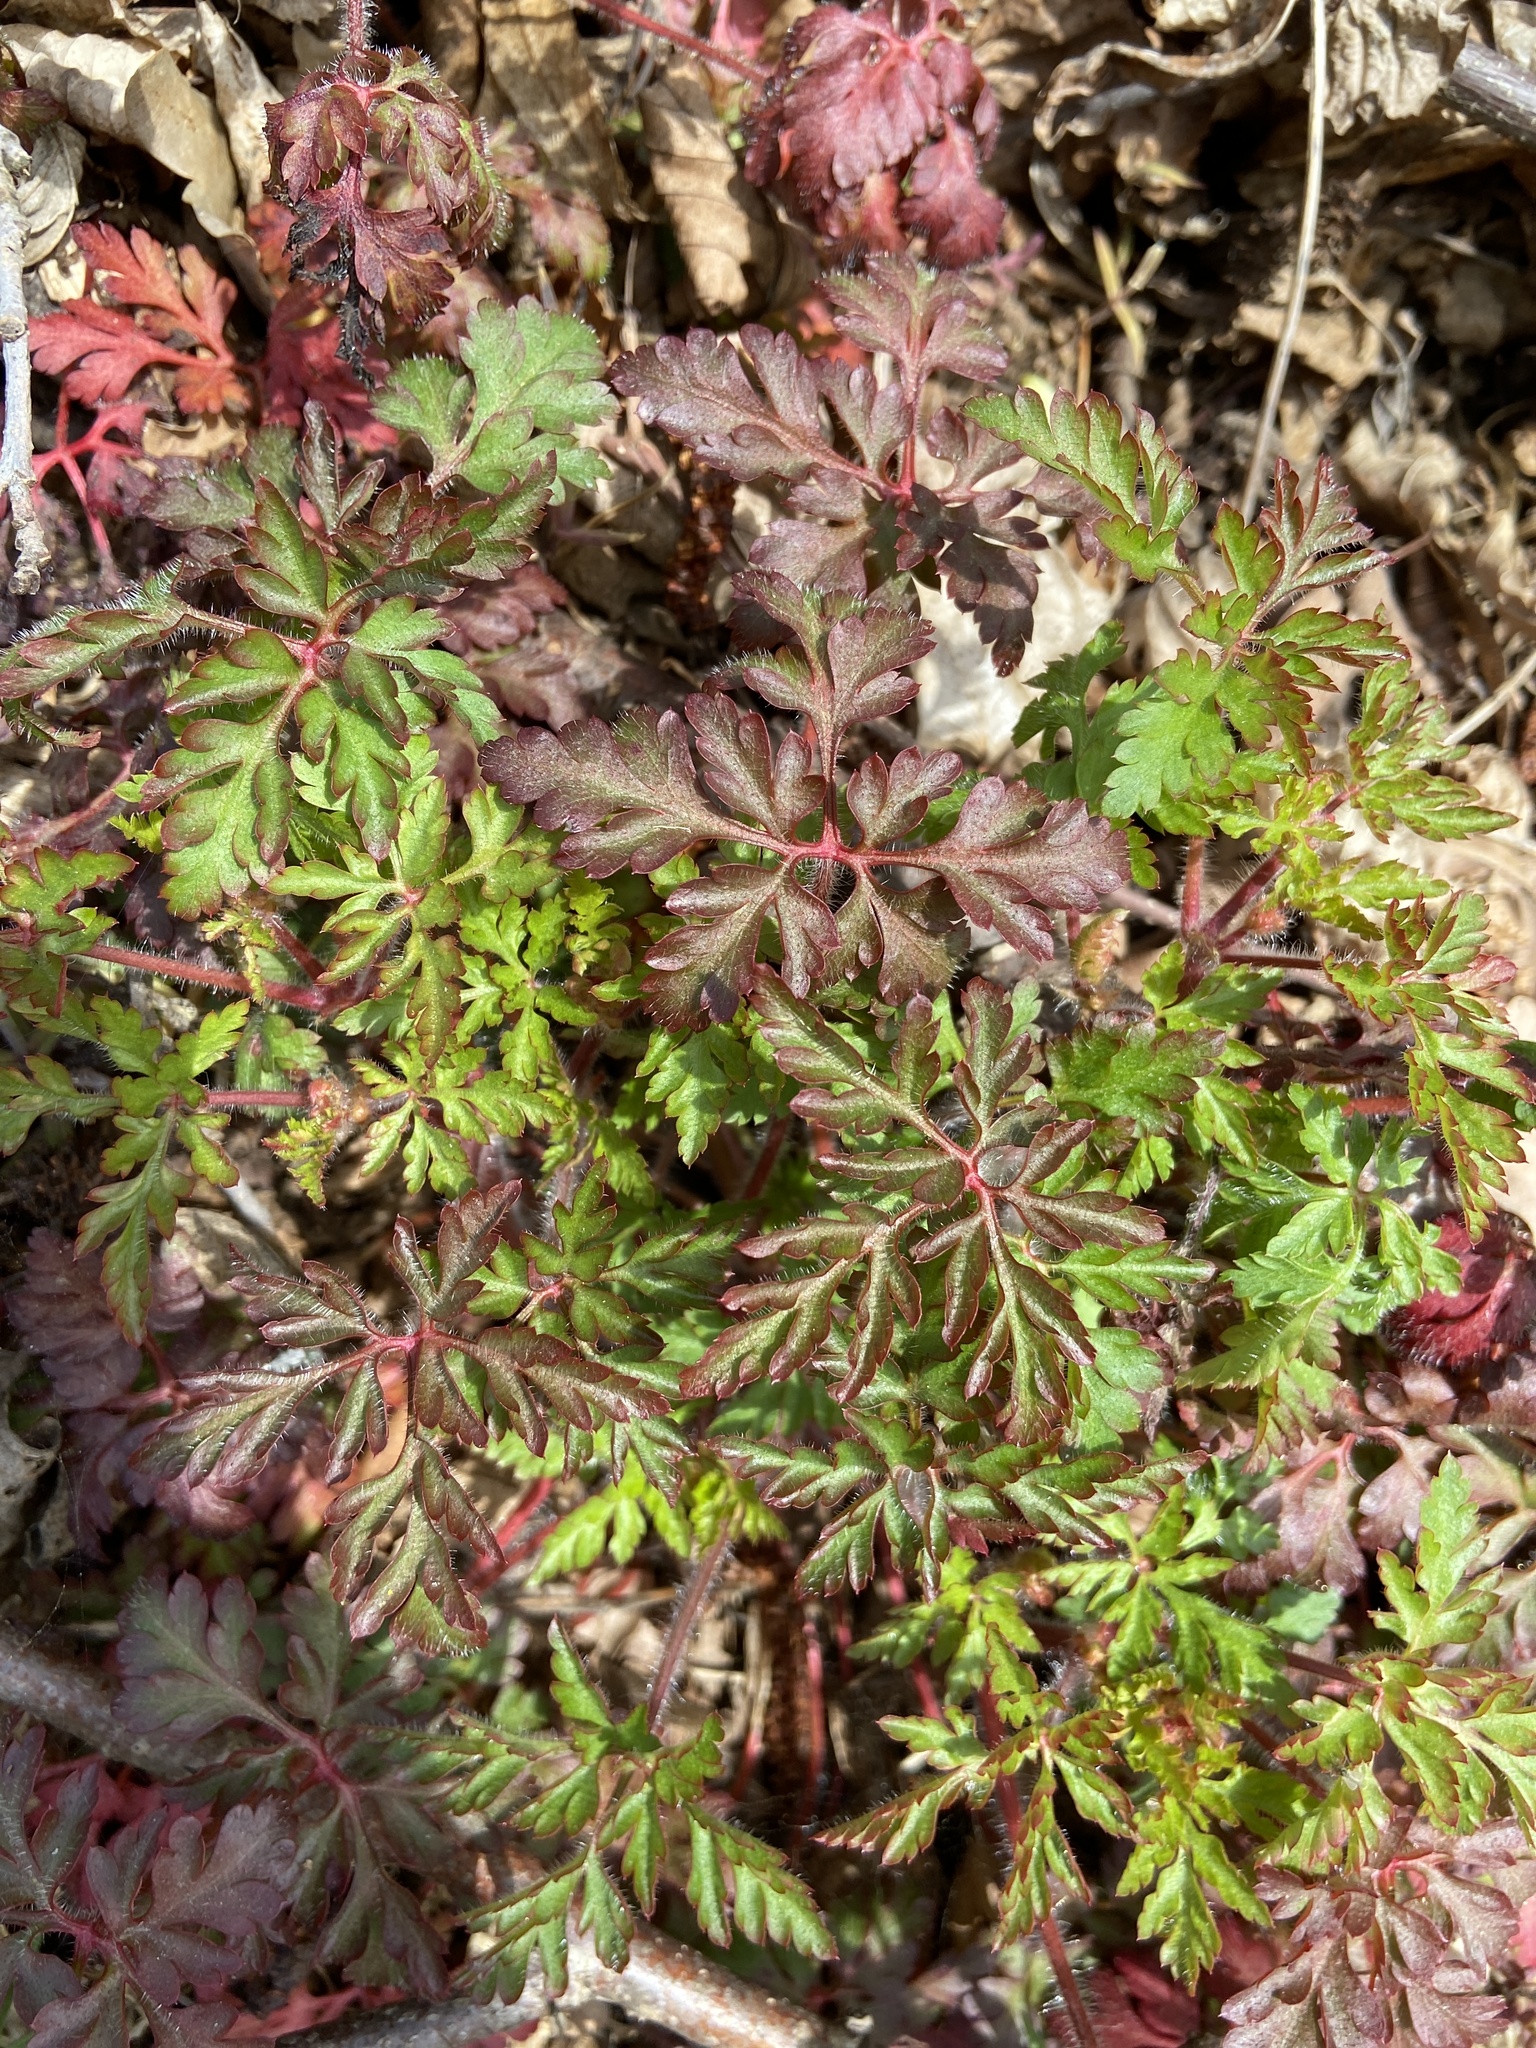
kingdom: Plantae
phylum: Tracheophyta
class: Magnoliopsida
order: Geraniales
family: Geraniaceae
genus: Geranium
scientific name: Geranium robertianum
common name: Herb-robert
